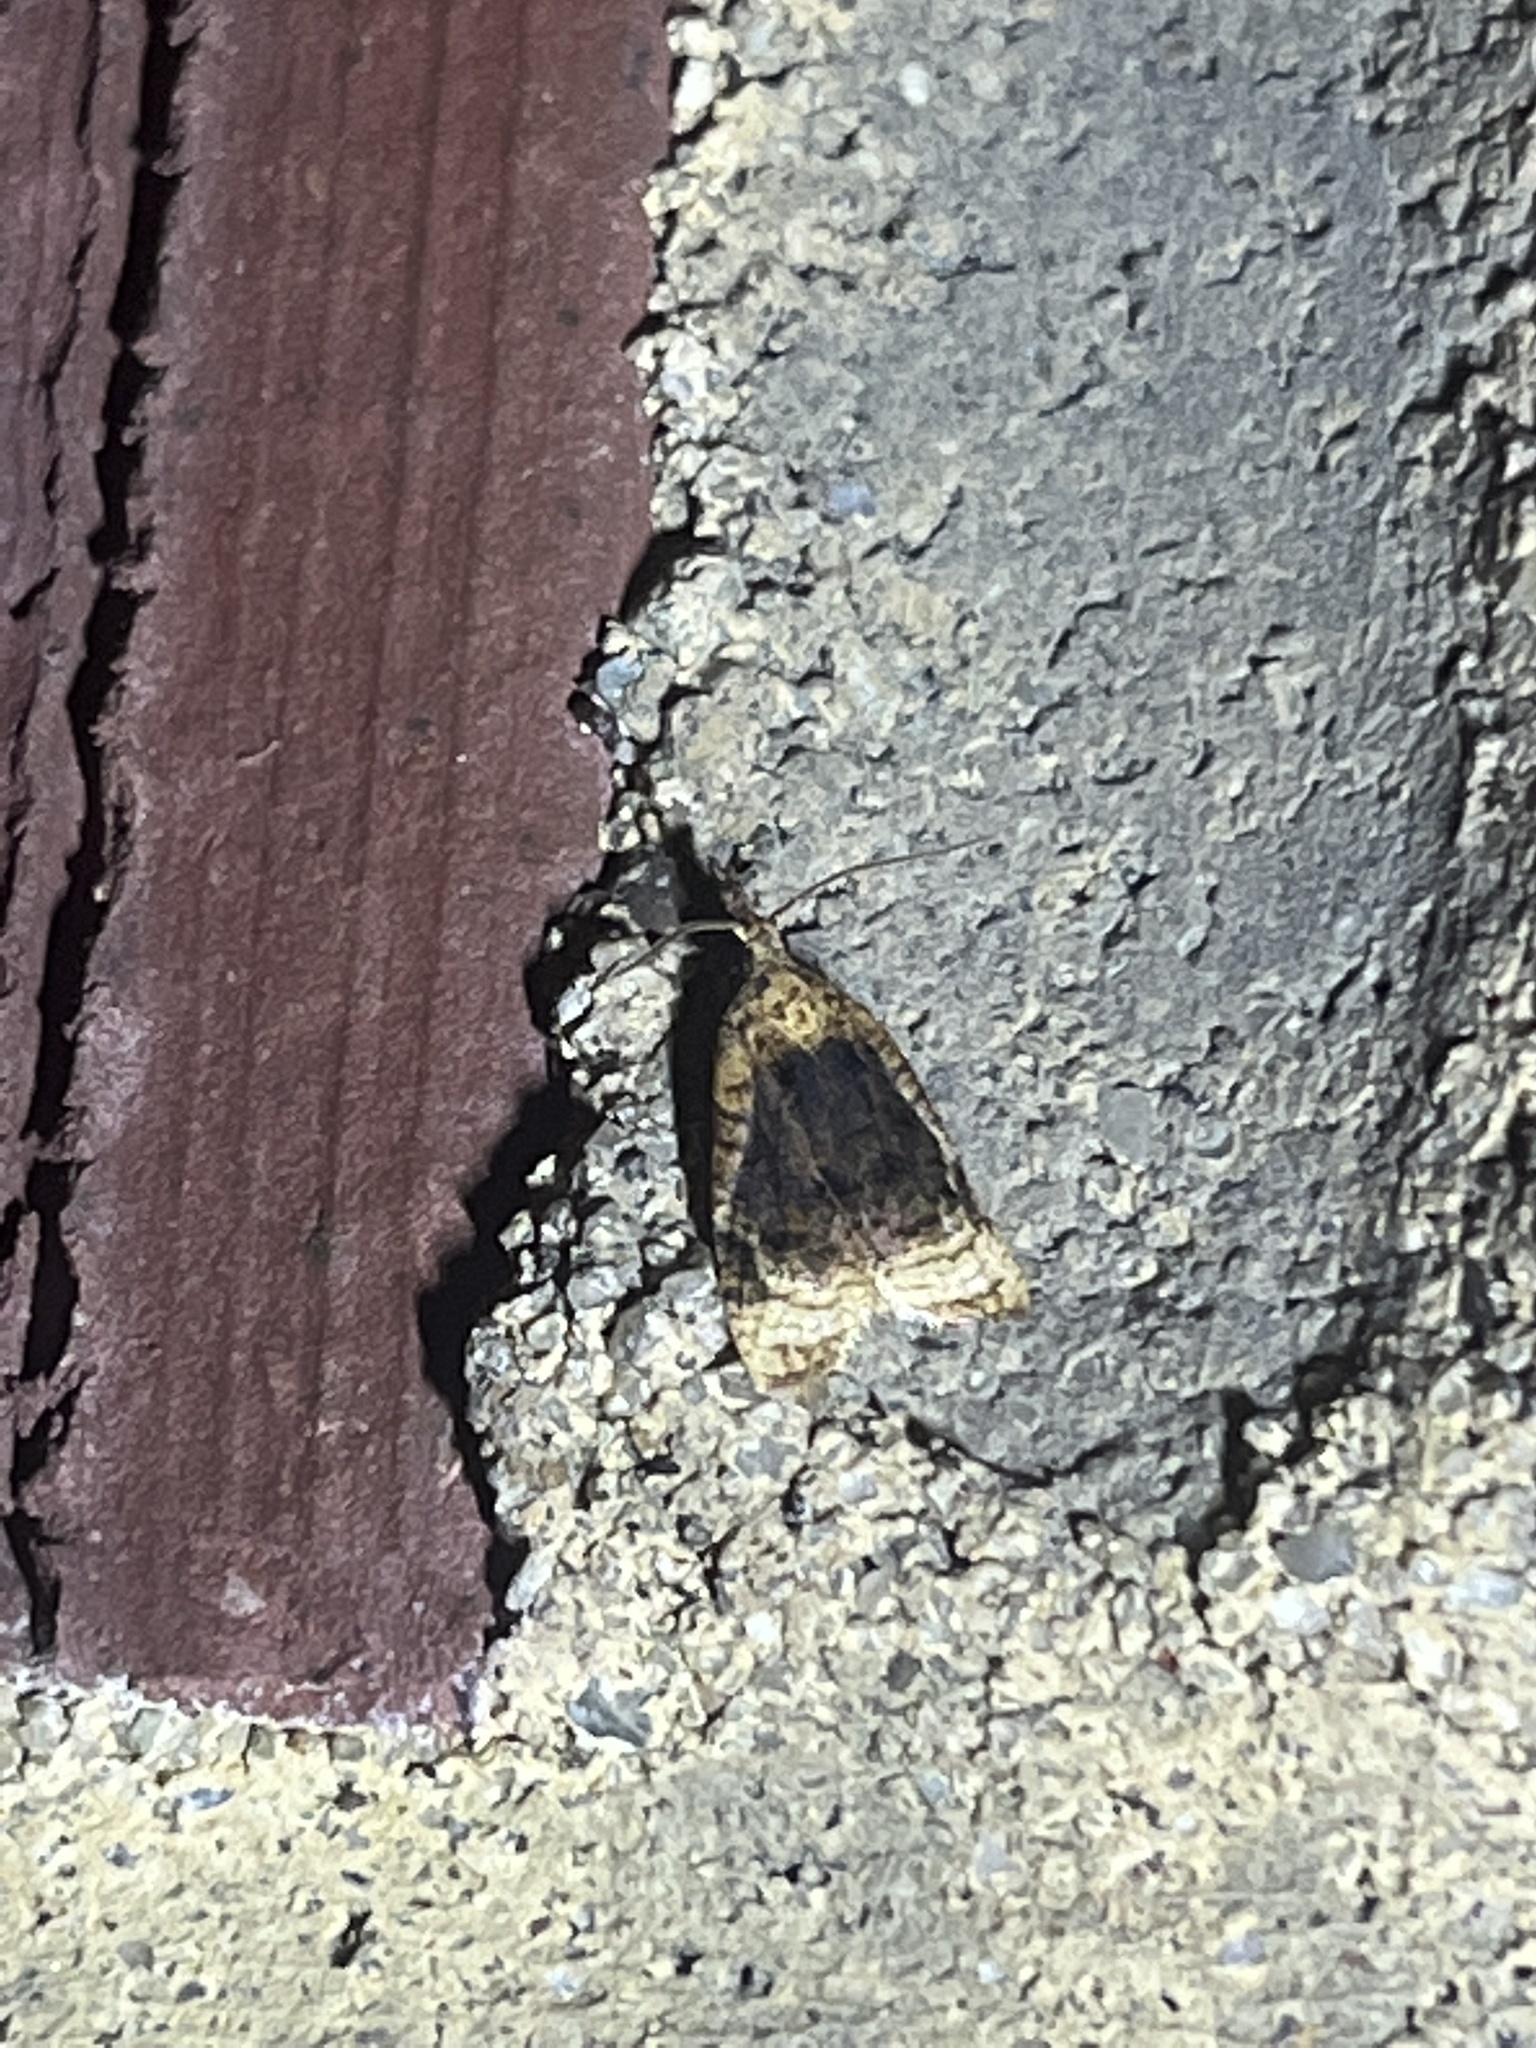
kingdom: Animalia
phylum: Arthropoda
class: Insecta
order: Lepidoptera
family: Tortricidae
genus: Platynota
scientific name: Platynota flavedana
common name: Black-shaded platynota moth
